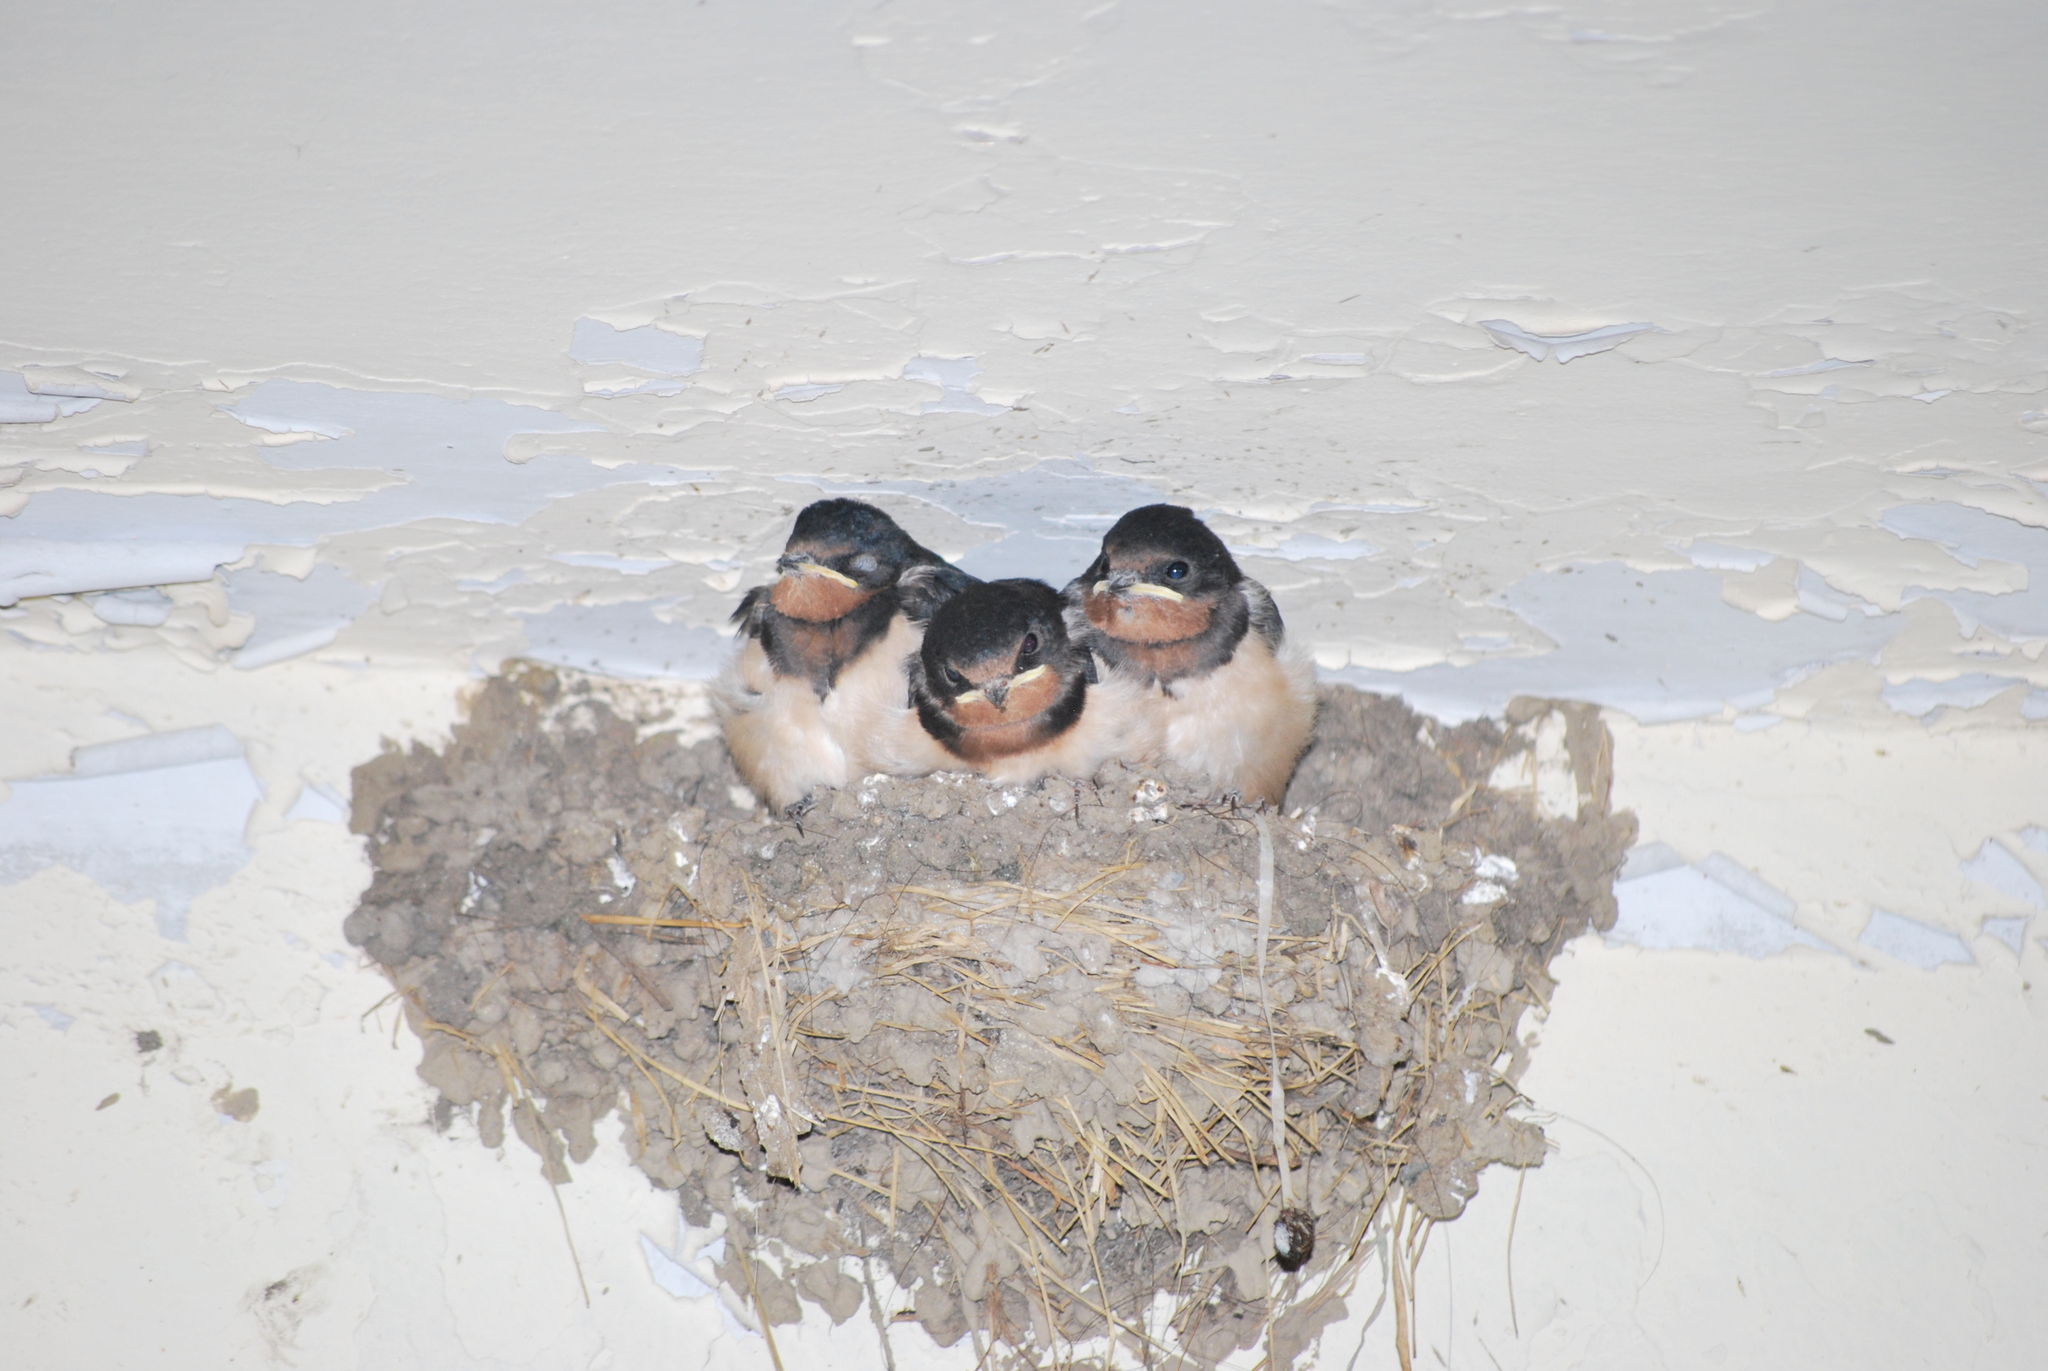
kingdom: Animalia
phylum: Chordata
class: Aves
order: Passeriformes
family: Hirundinidae
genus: Hirundo
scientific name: Hirundo rustica
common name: Barn swallow
